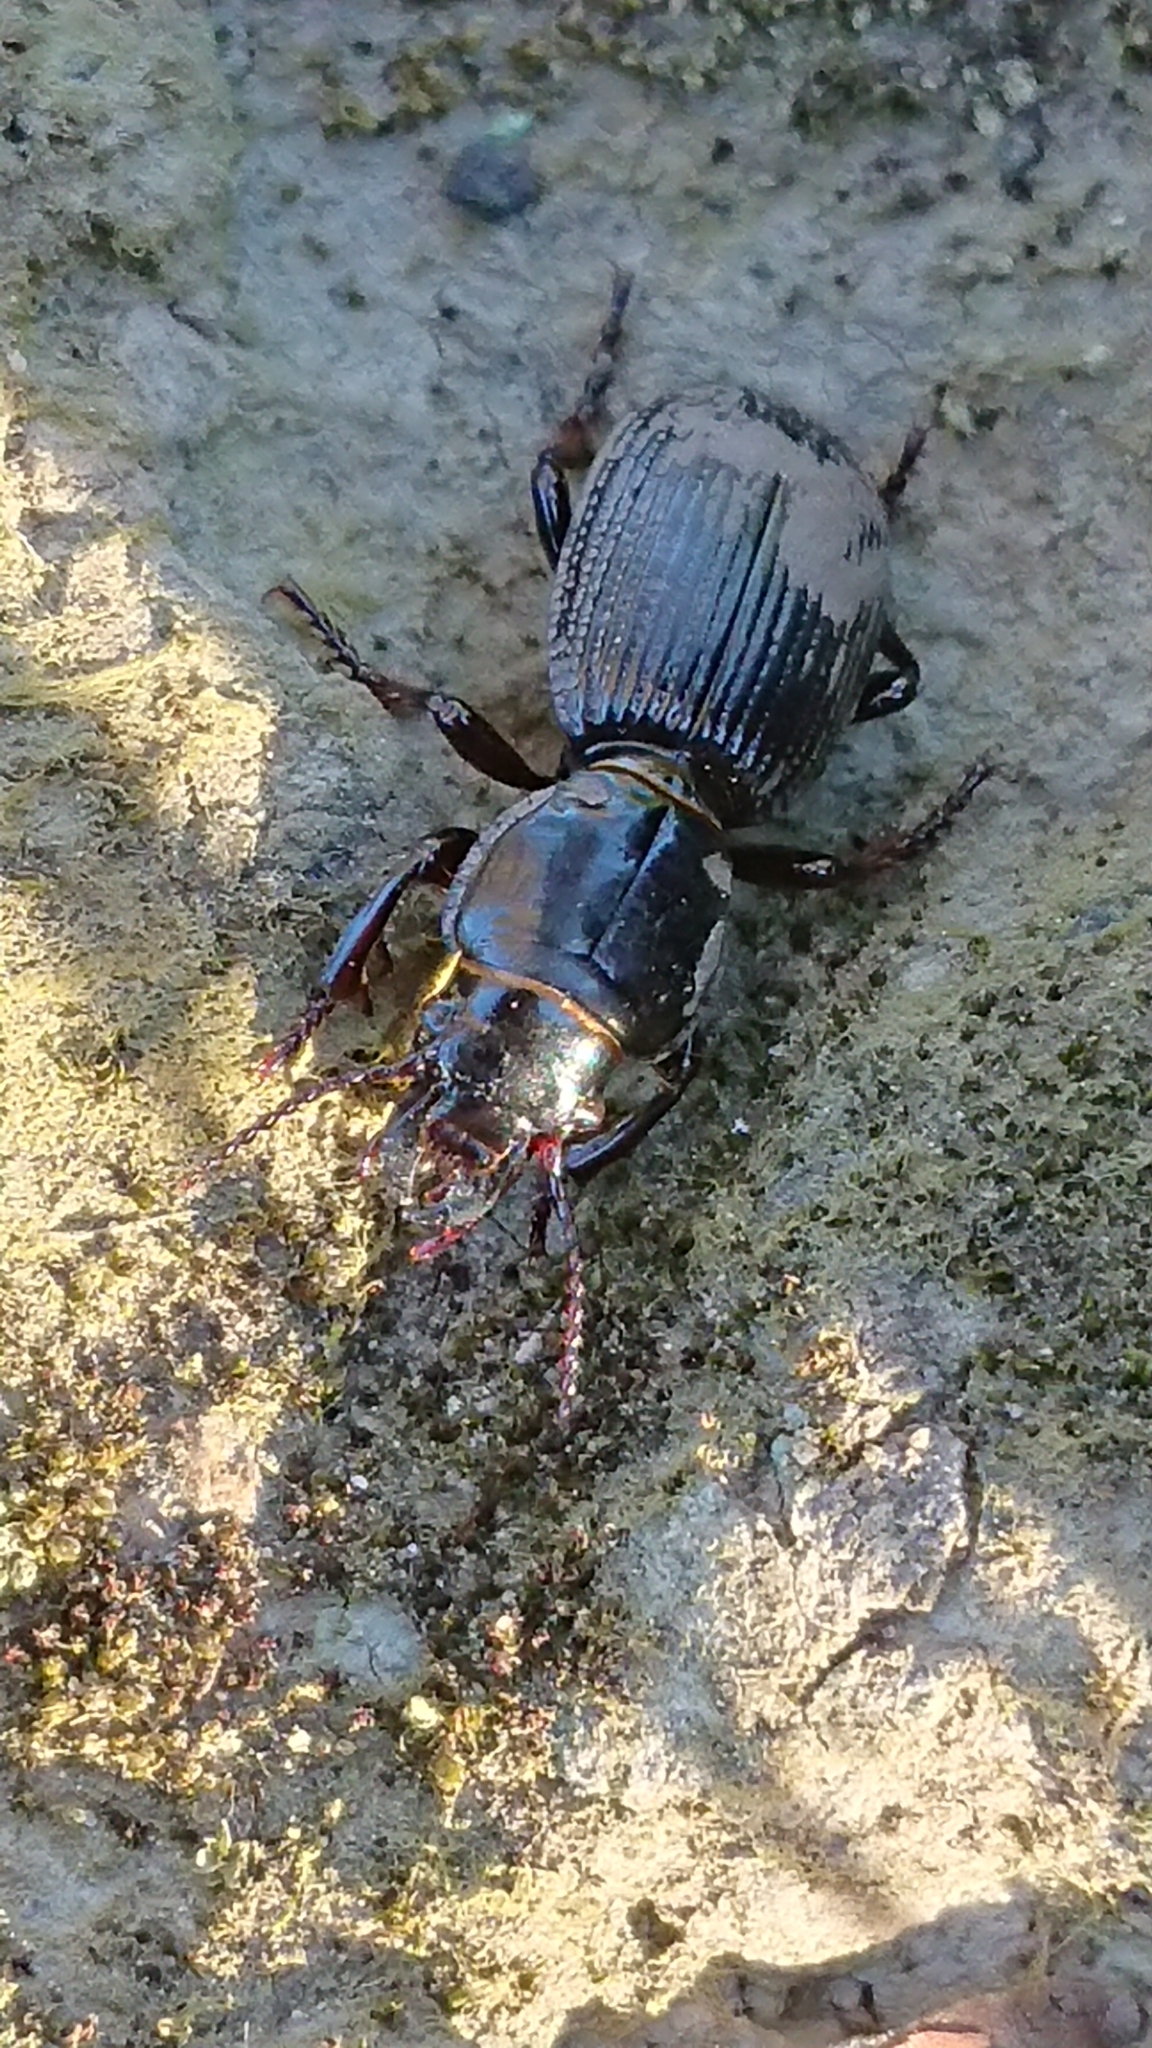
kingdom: Animalia
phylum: Arthropoda
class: Insecta
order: Coleoptera
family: Carabidae
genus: Mecodema
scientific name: Mecodema moniliferum
